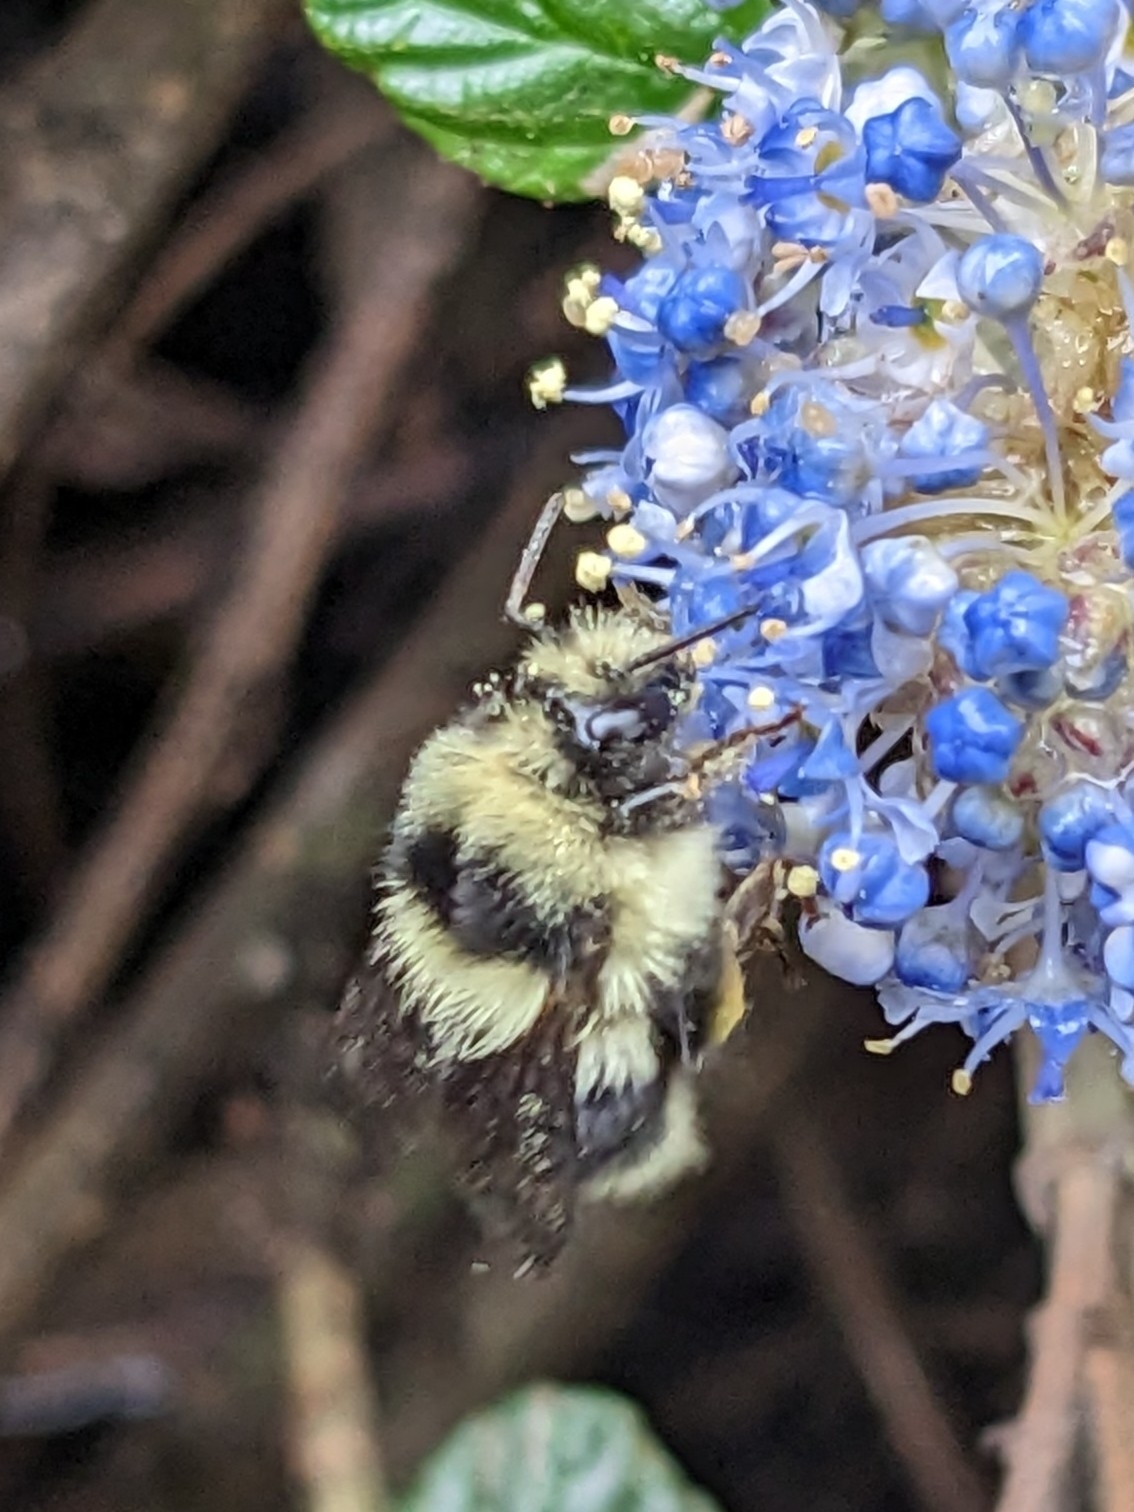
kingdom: Animalia
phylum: Arthropoda
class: Insecta
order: Hymenoptera
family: Apidae
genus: Bombus
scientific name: Bombus melanopygus
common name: Black tail bumble bee
